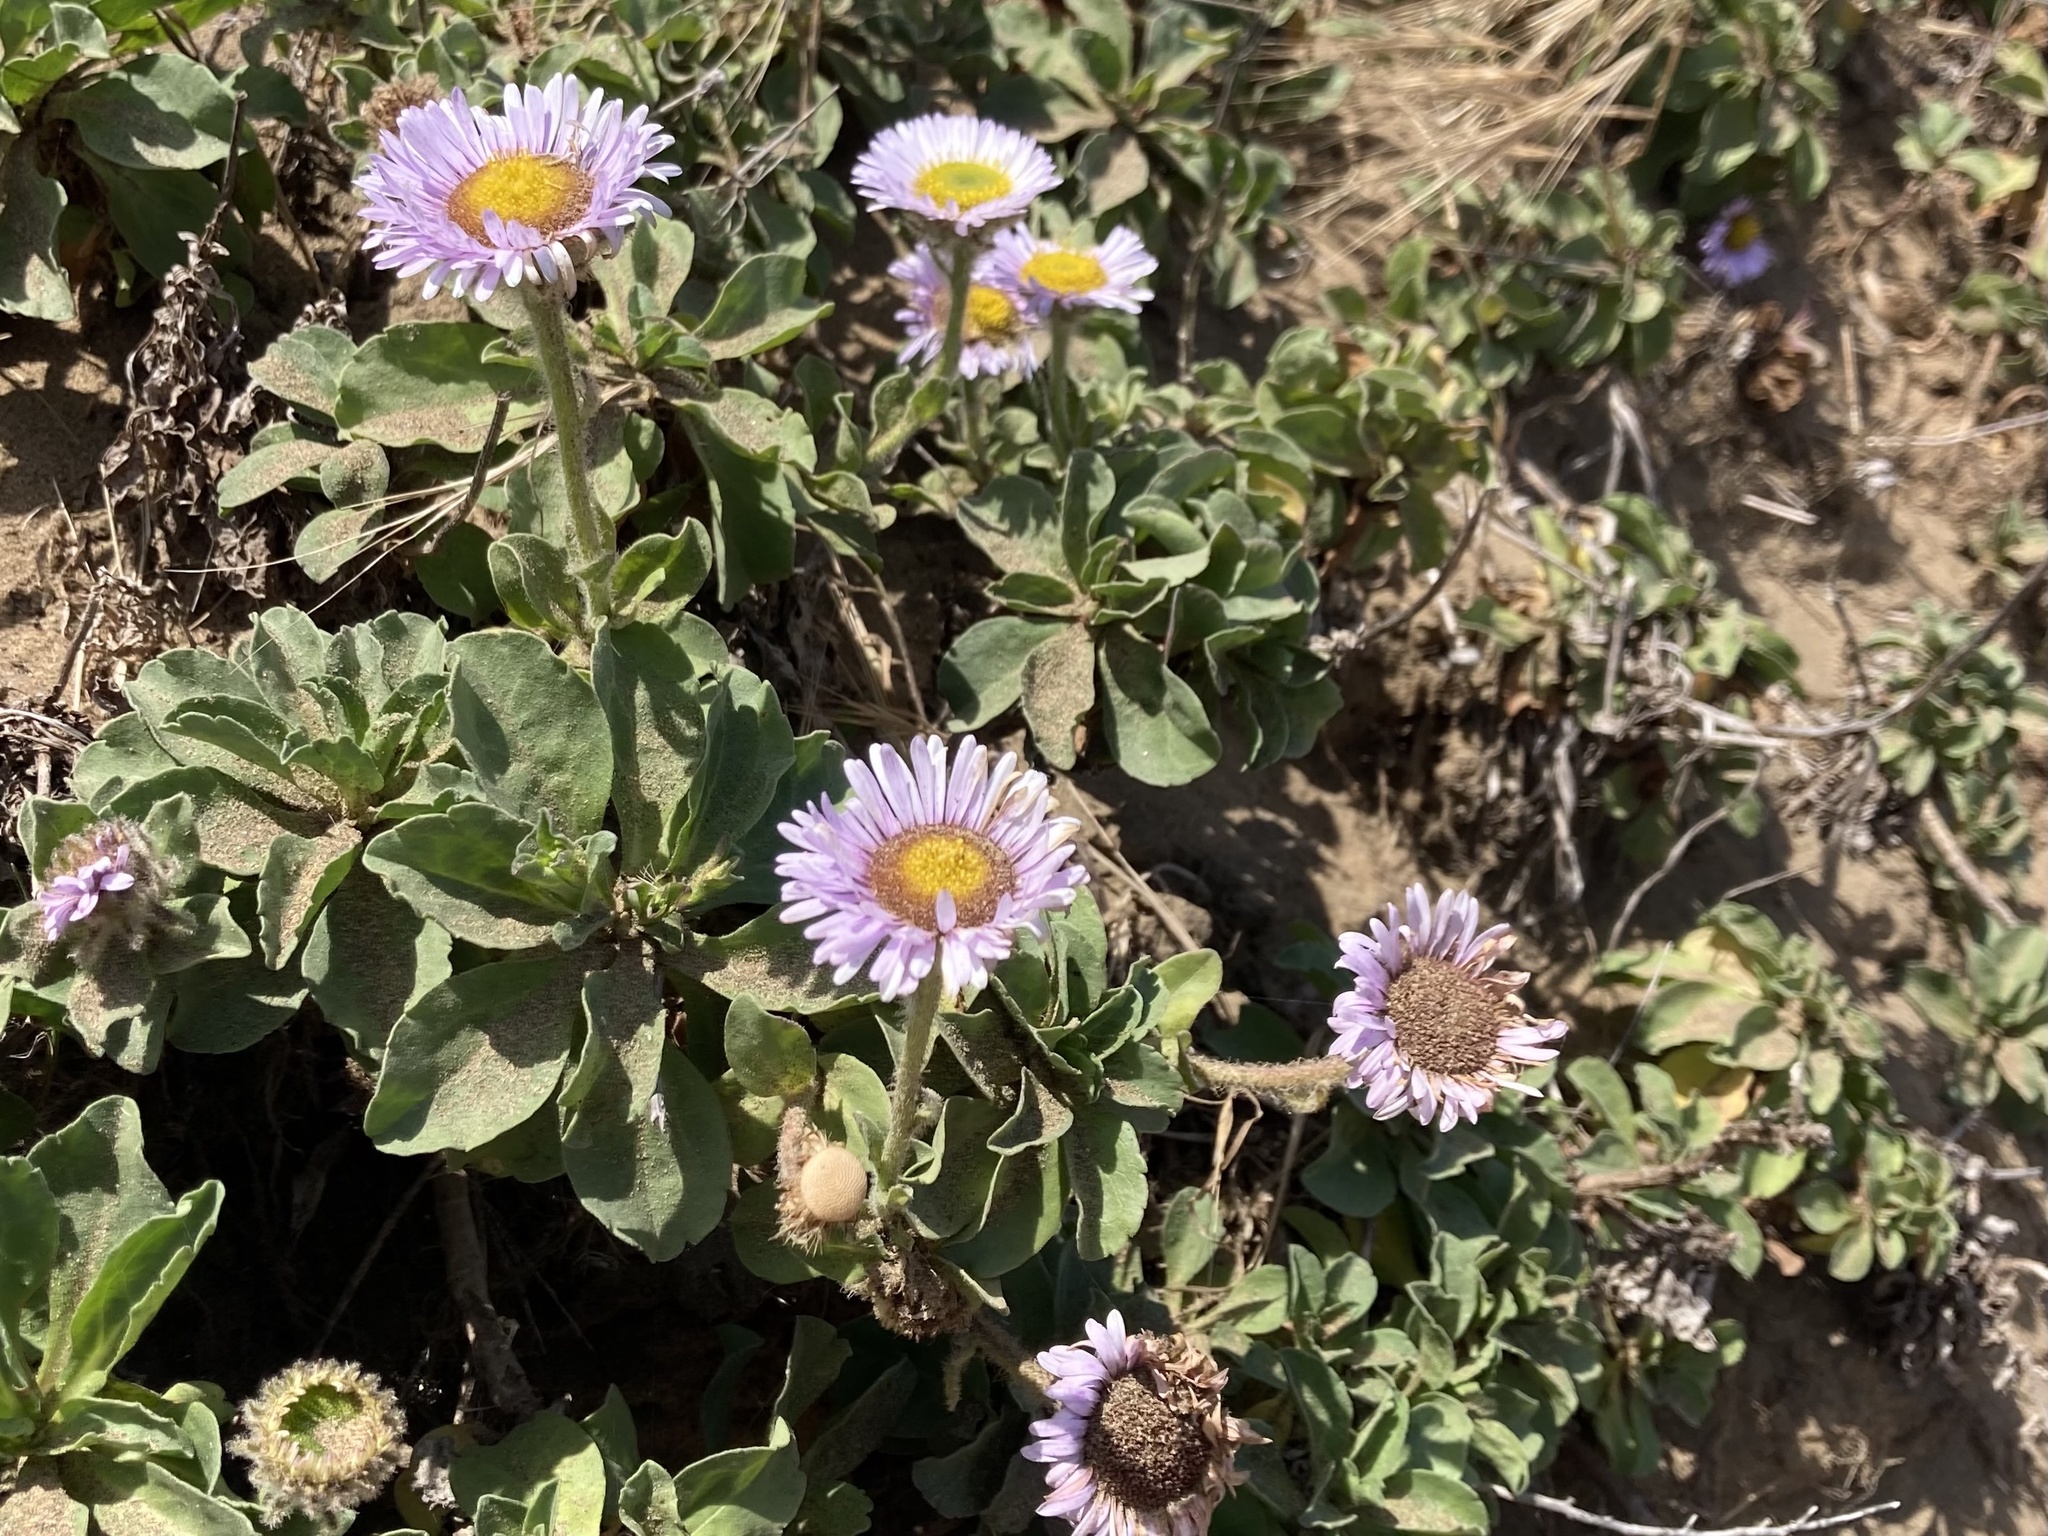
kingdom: Plantae
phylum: Tracheophyta
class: Magnoliopsida
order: Asterales
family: Asteraceae
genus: Erigeron
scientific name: Erigeron glaucus
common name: Seaside daisy
